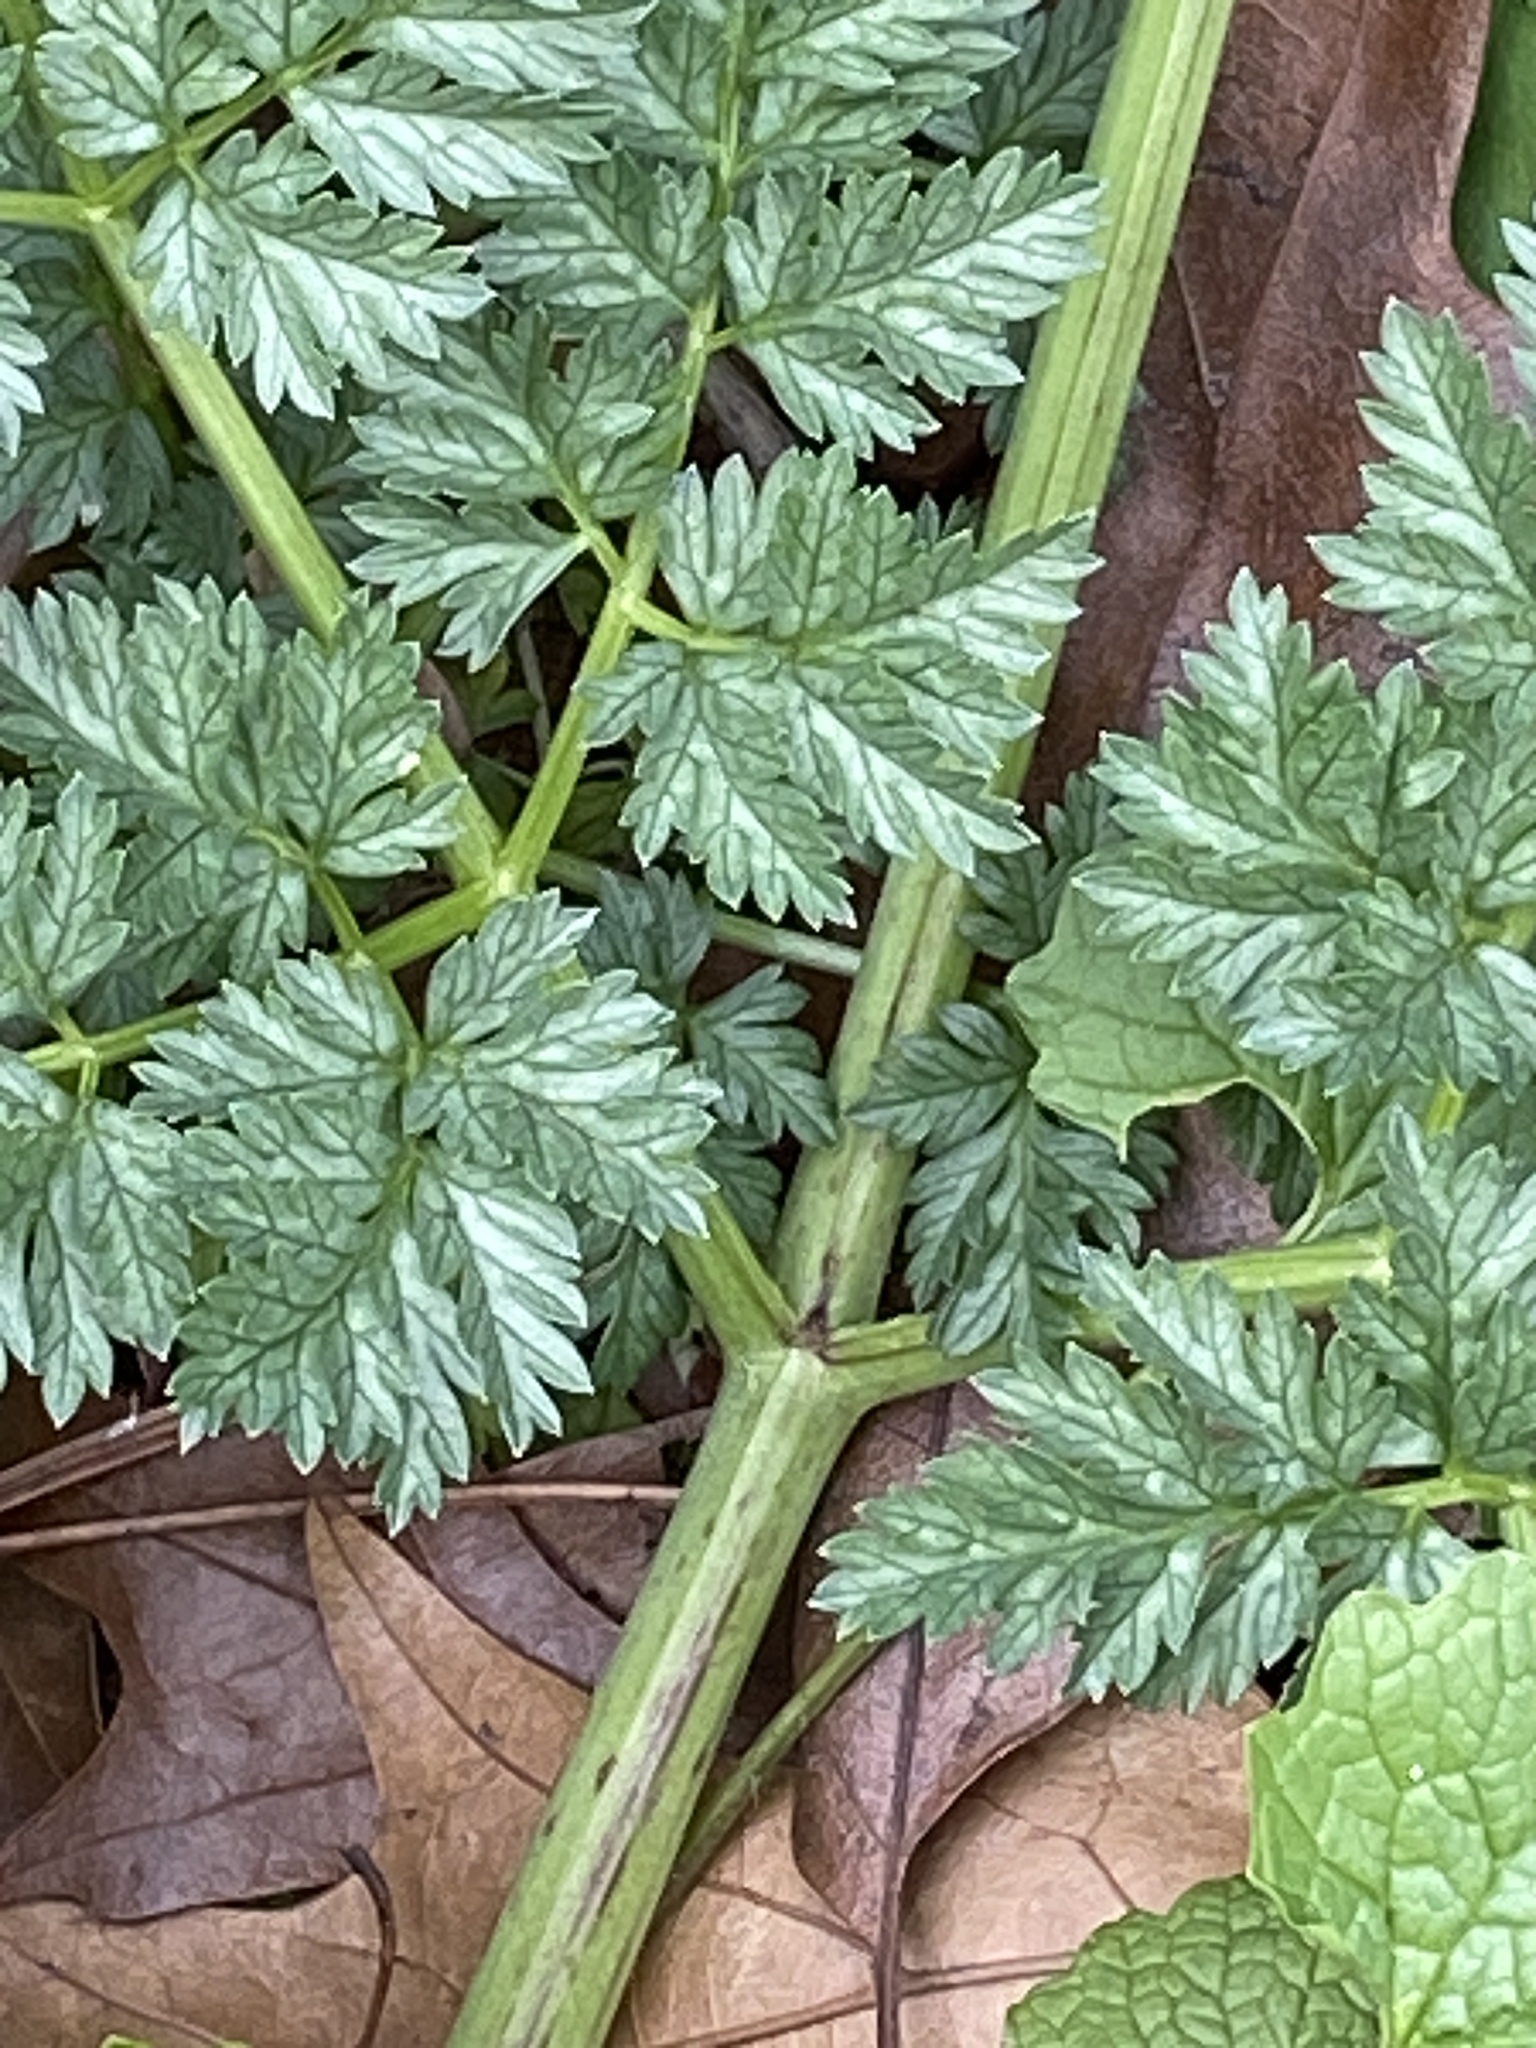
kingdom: Plantae
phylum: Tracheophyta
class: Magnoliopsida
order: Apiales
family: Apiaceae
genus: Conium
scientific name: Conium maculatum
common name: Hemlock
